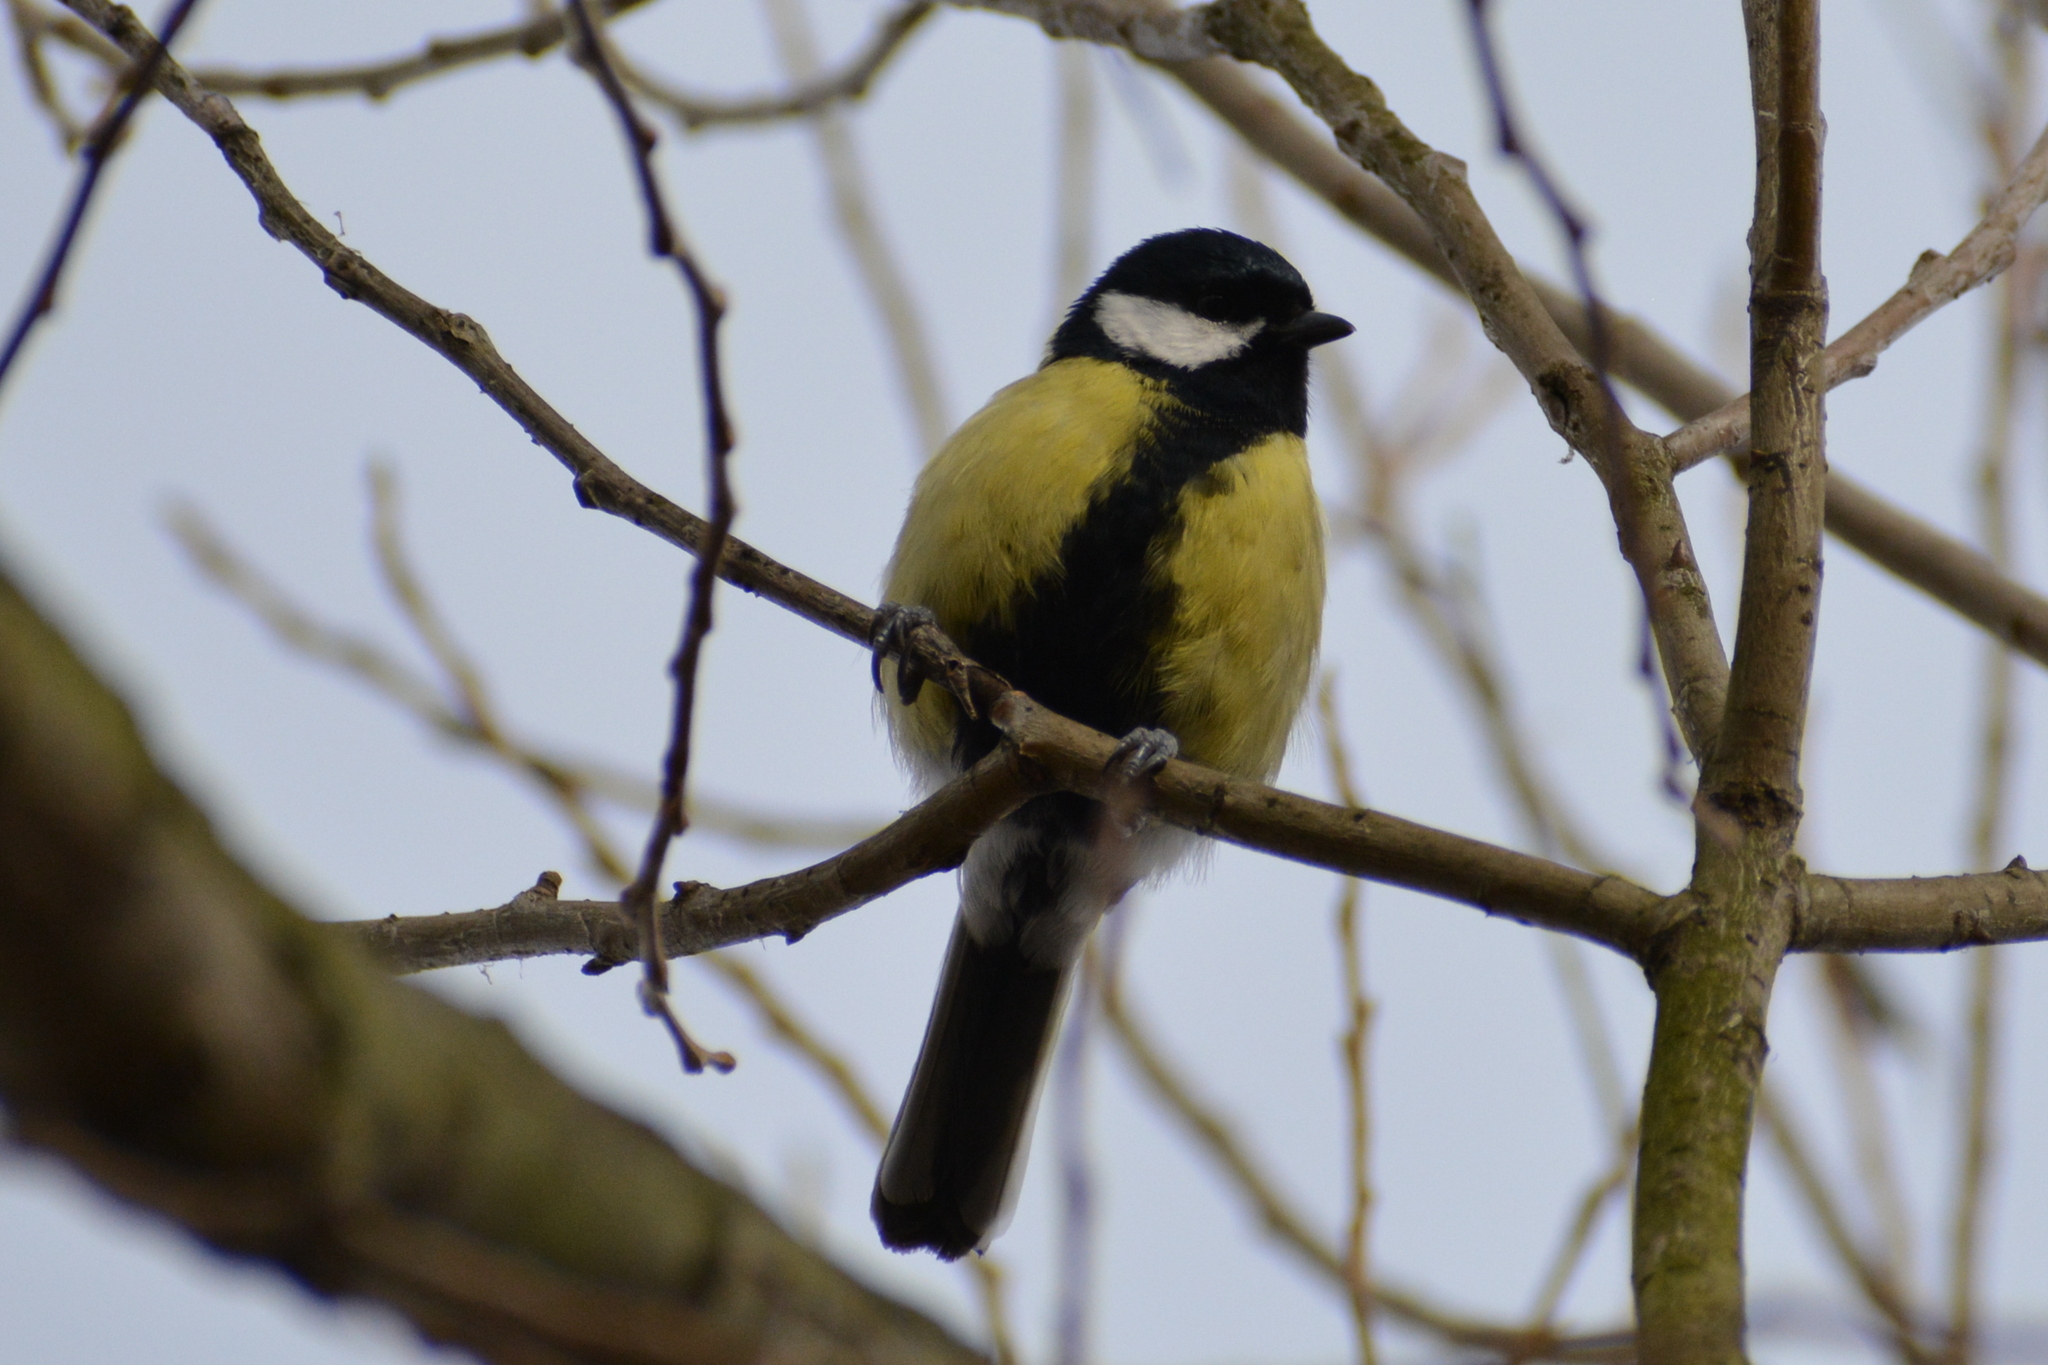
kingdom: Animalia
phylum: Chordata
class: Aves
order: Passeriformes
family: Paridae
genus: Parus
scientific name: Parus major
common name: Great tit
